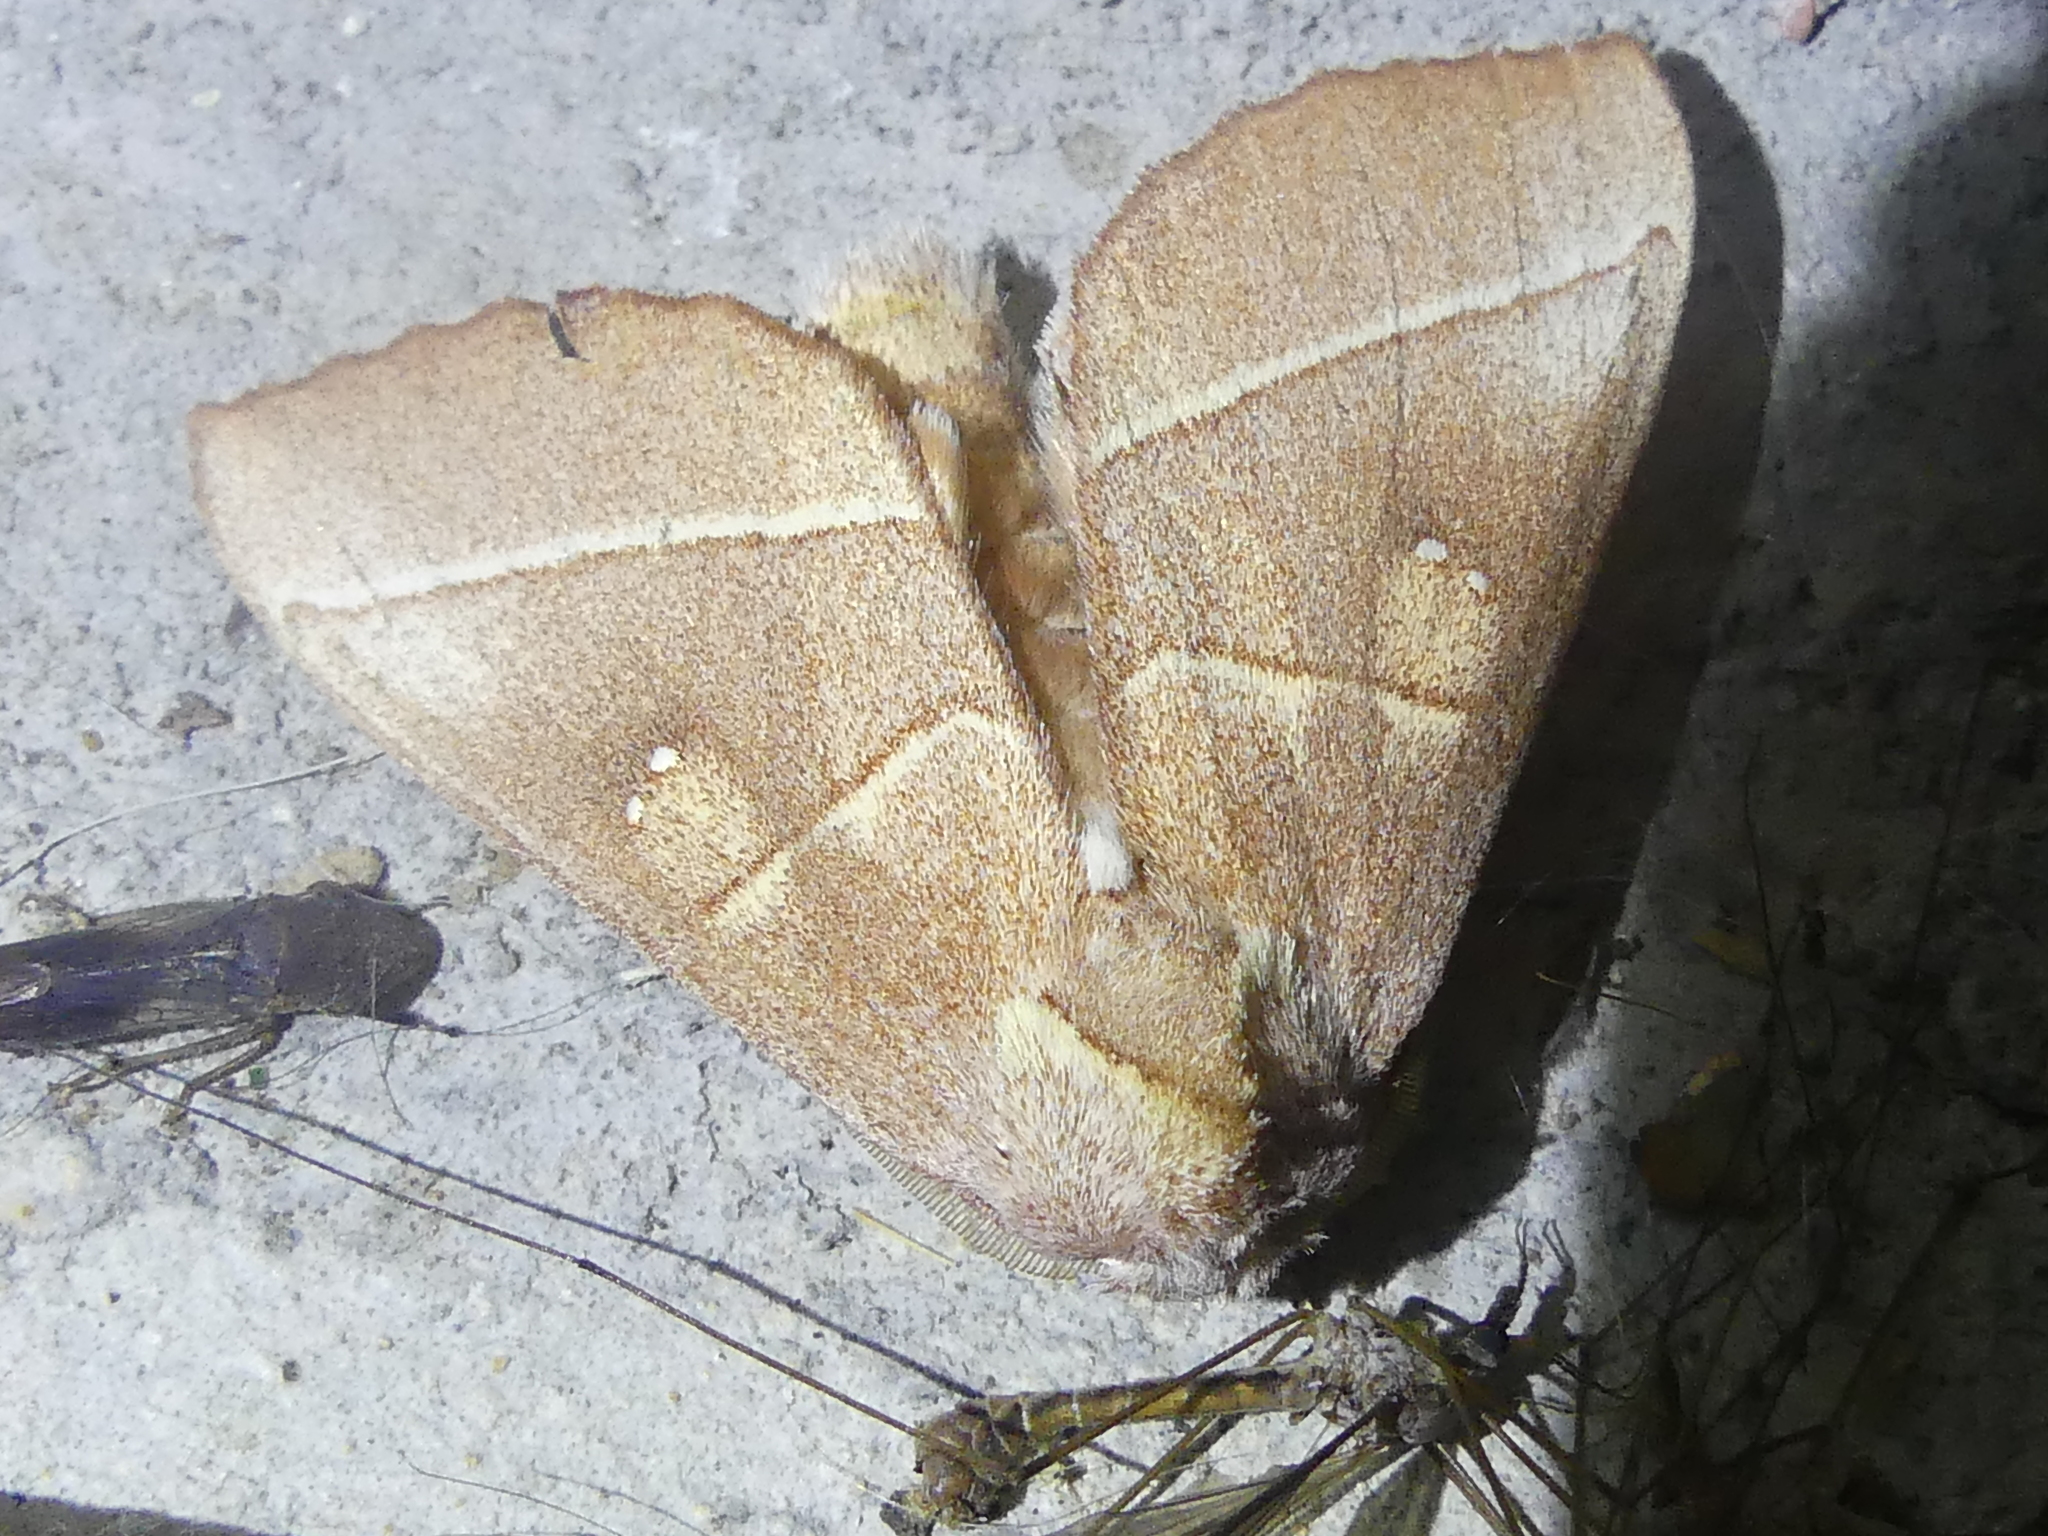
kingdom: Animalia
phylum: Arthropoda
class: Insecta
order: Lepidoptera
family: Notodontidae
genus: Nadata
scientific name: Nadata gibbosa
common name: White-dotted prominent
